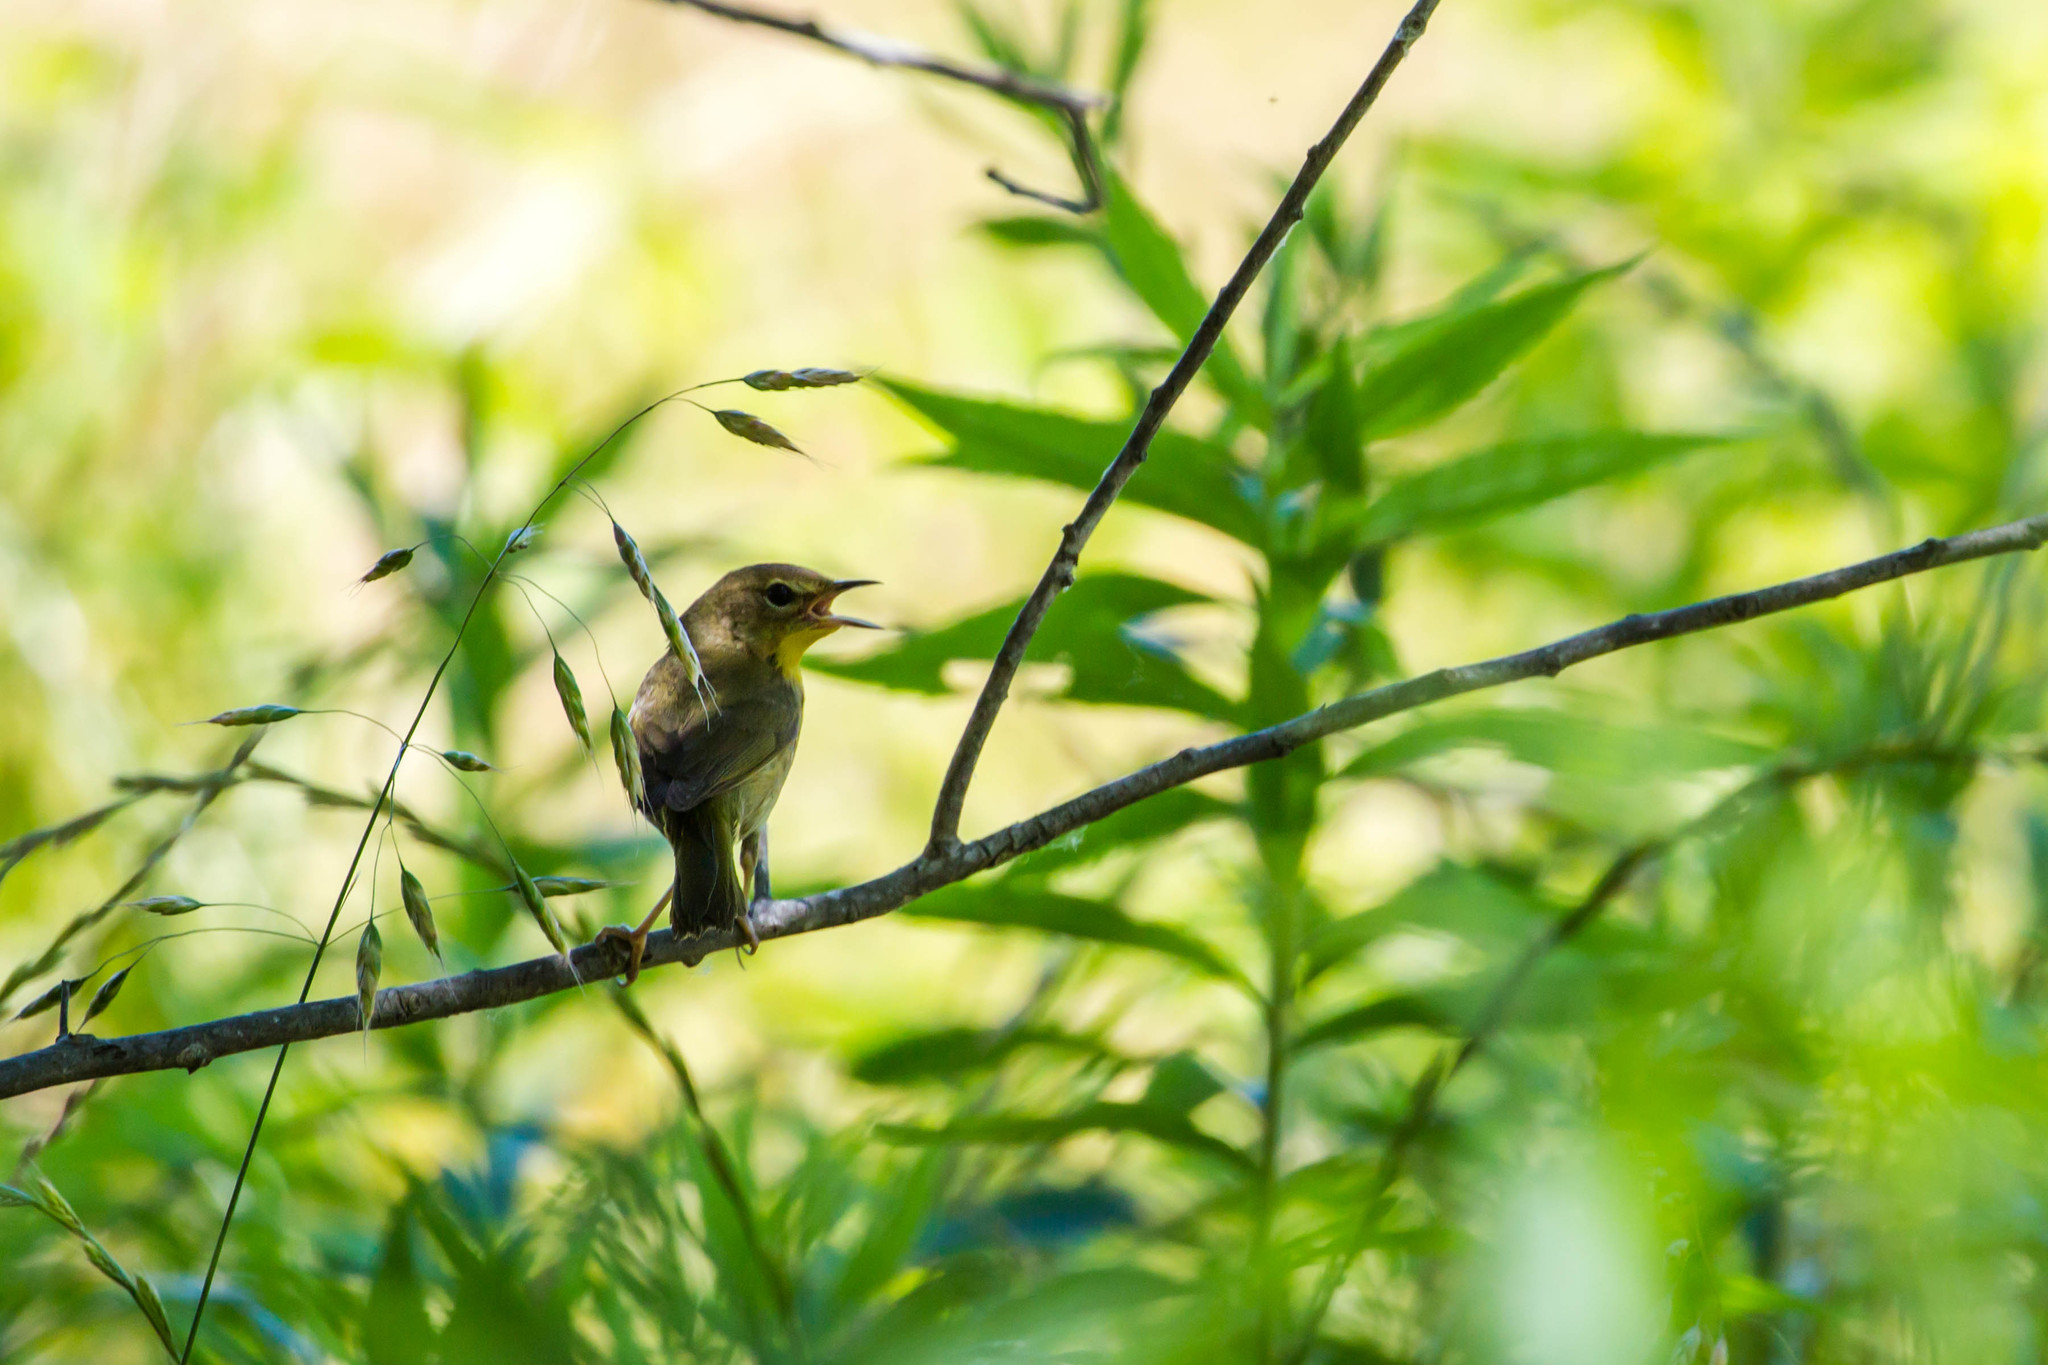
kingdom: Animalia
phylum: Chordata
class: Aves
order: Passeriformes
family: Parulidae
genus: Geothlypis
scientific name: Geothlypis trichas
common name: Common yellowthroat
